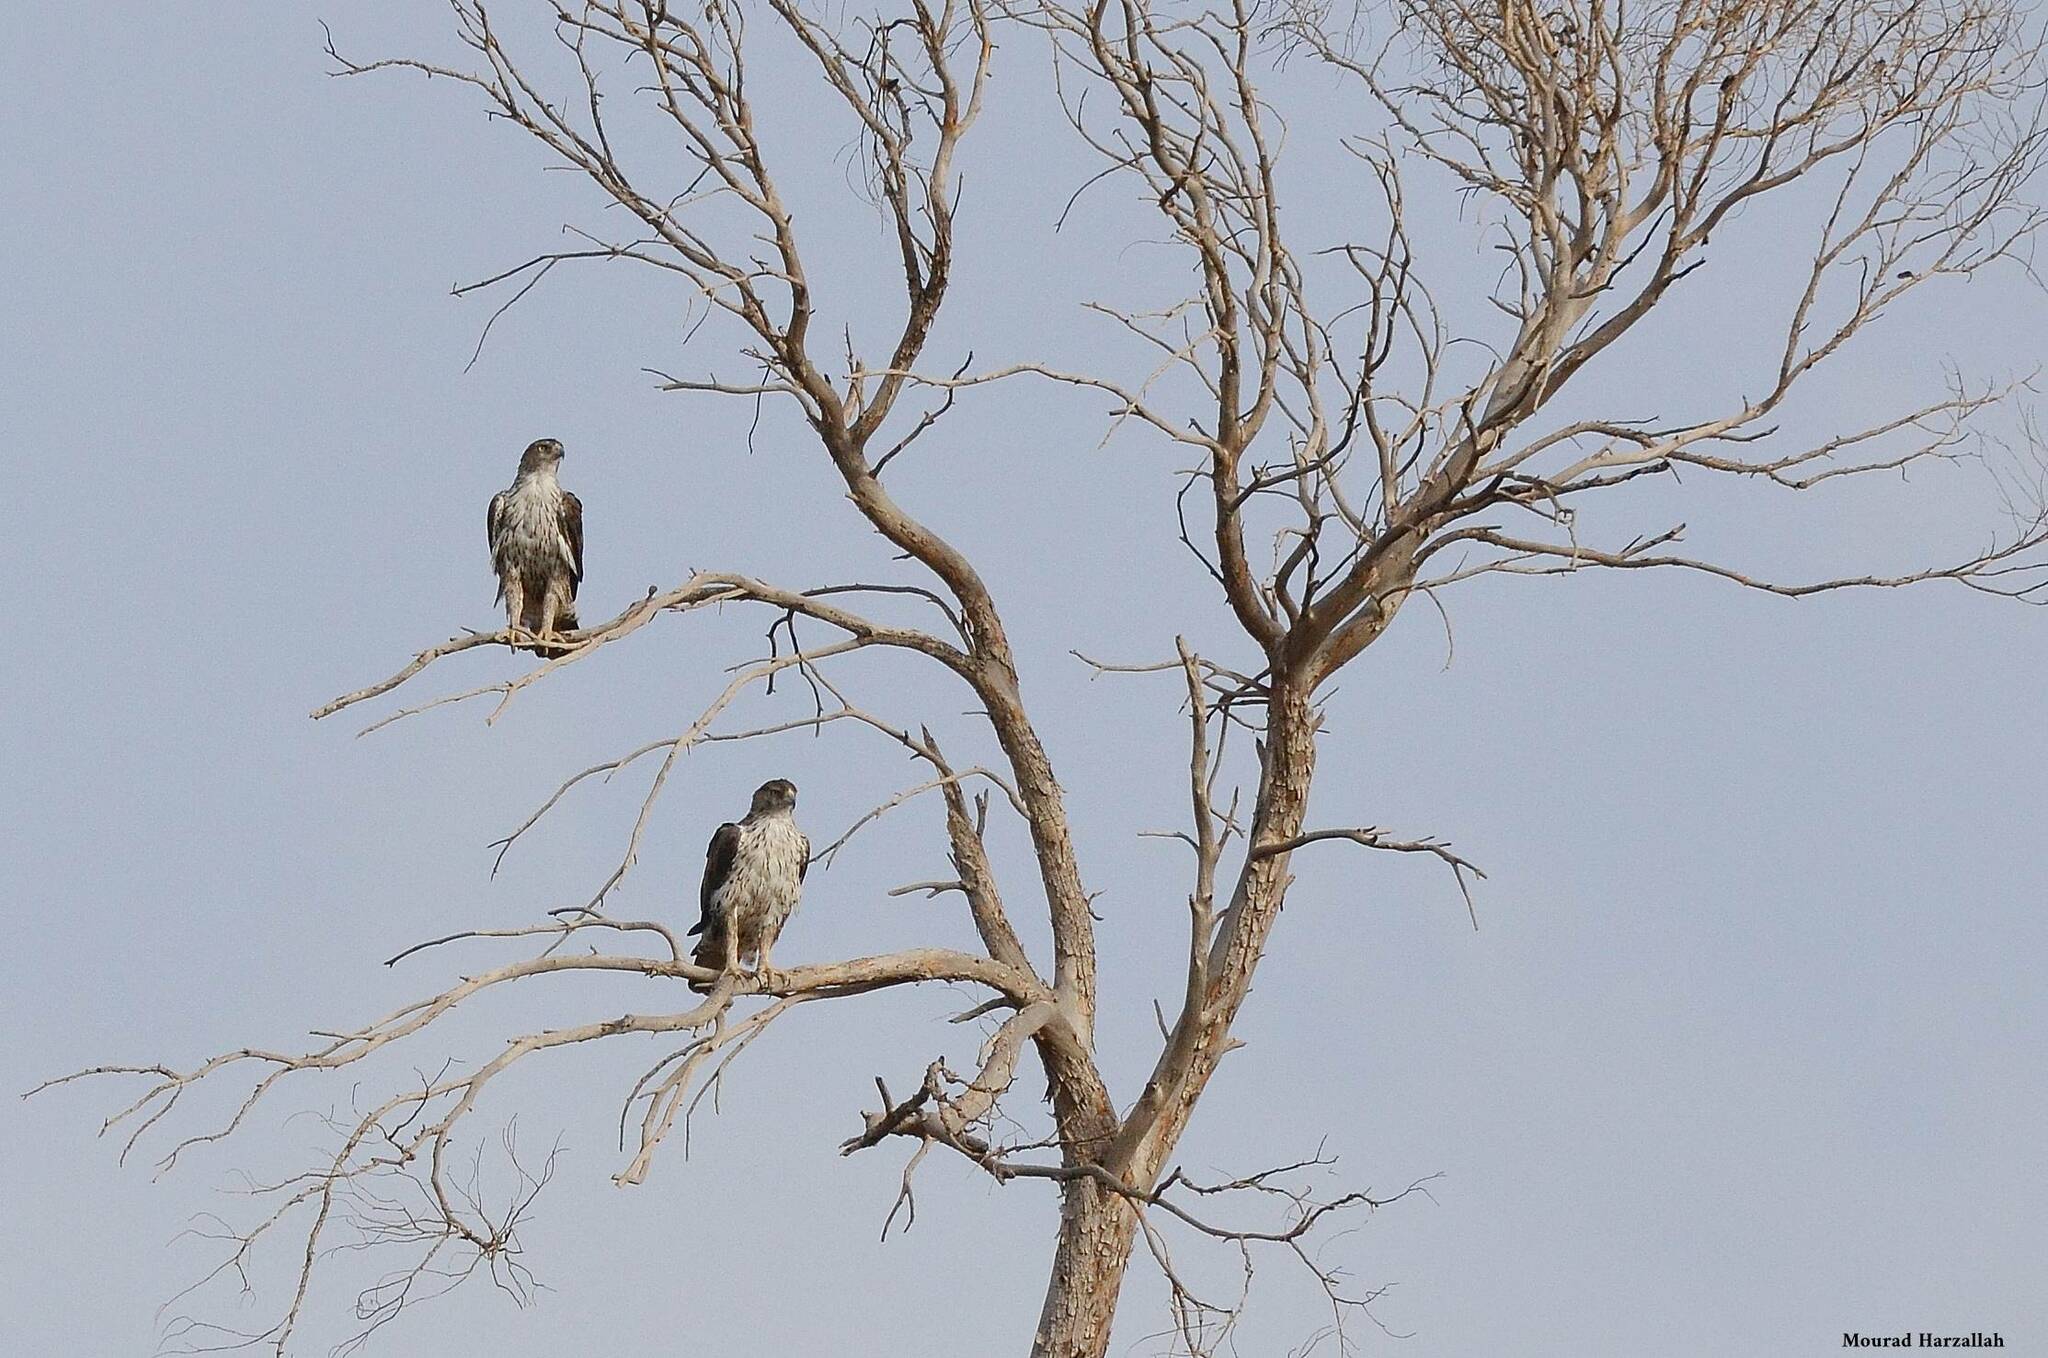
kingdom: Animalia
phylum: Chordata
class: Aves
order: Accipitriformes
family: Accipitridae
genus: Aquila
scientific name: Aquila fasciata
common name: Bonelli's eagle
